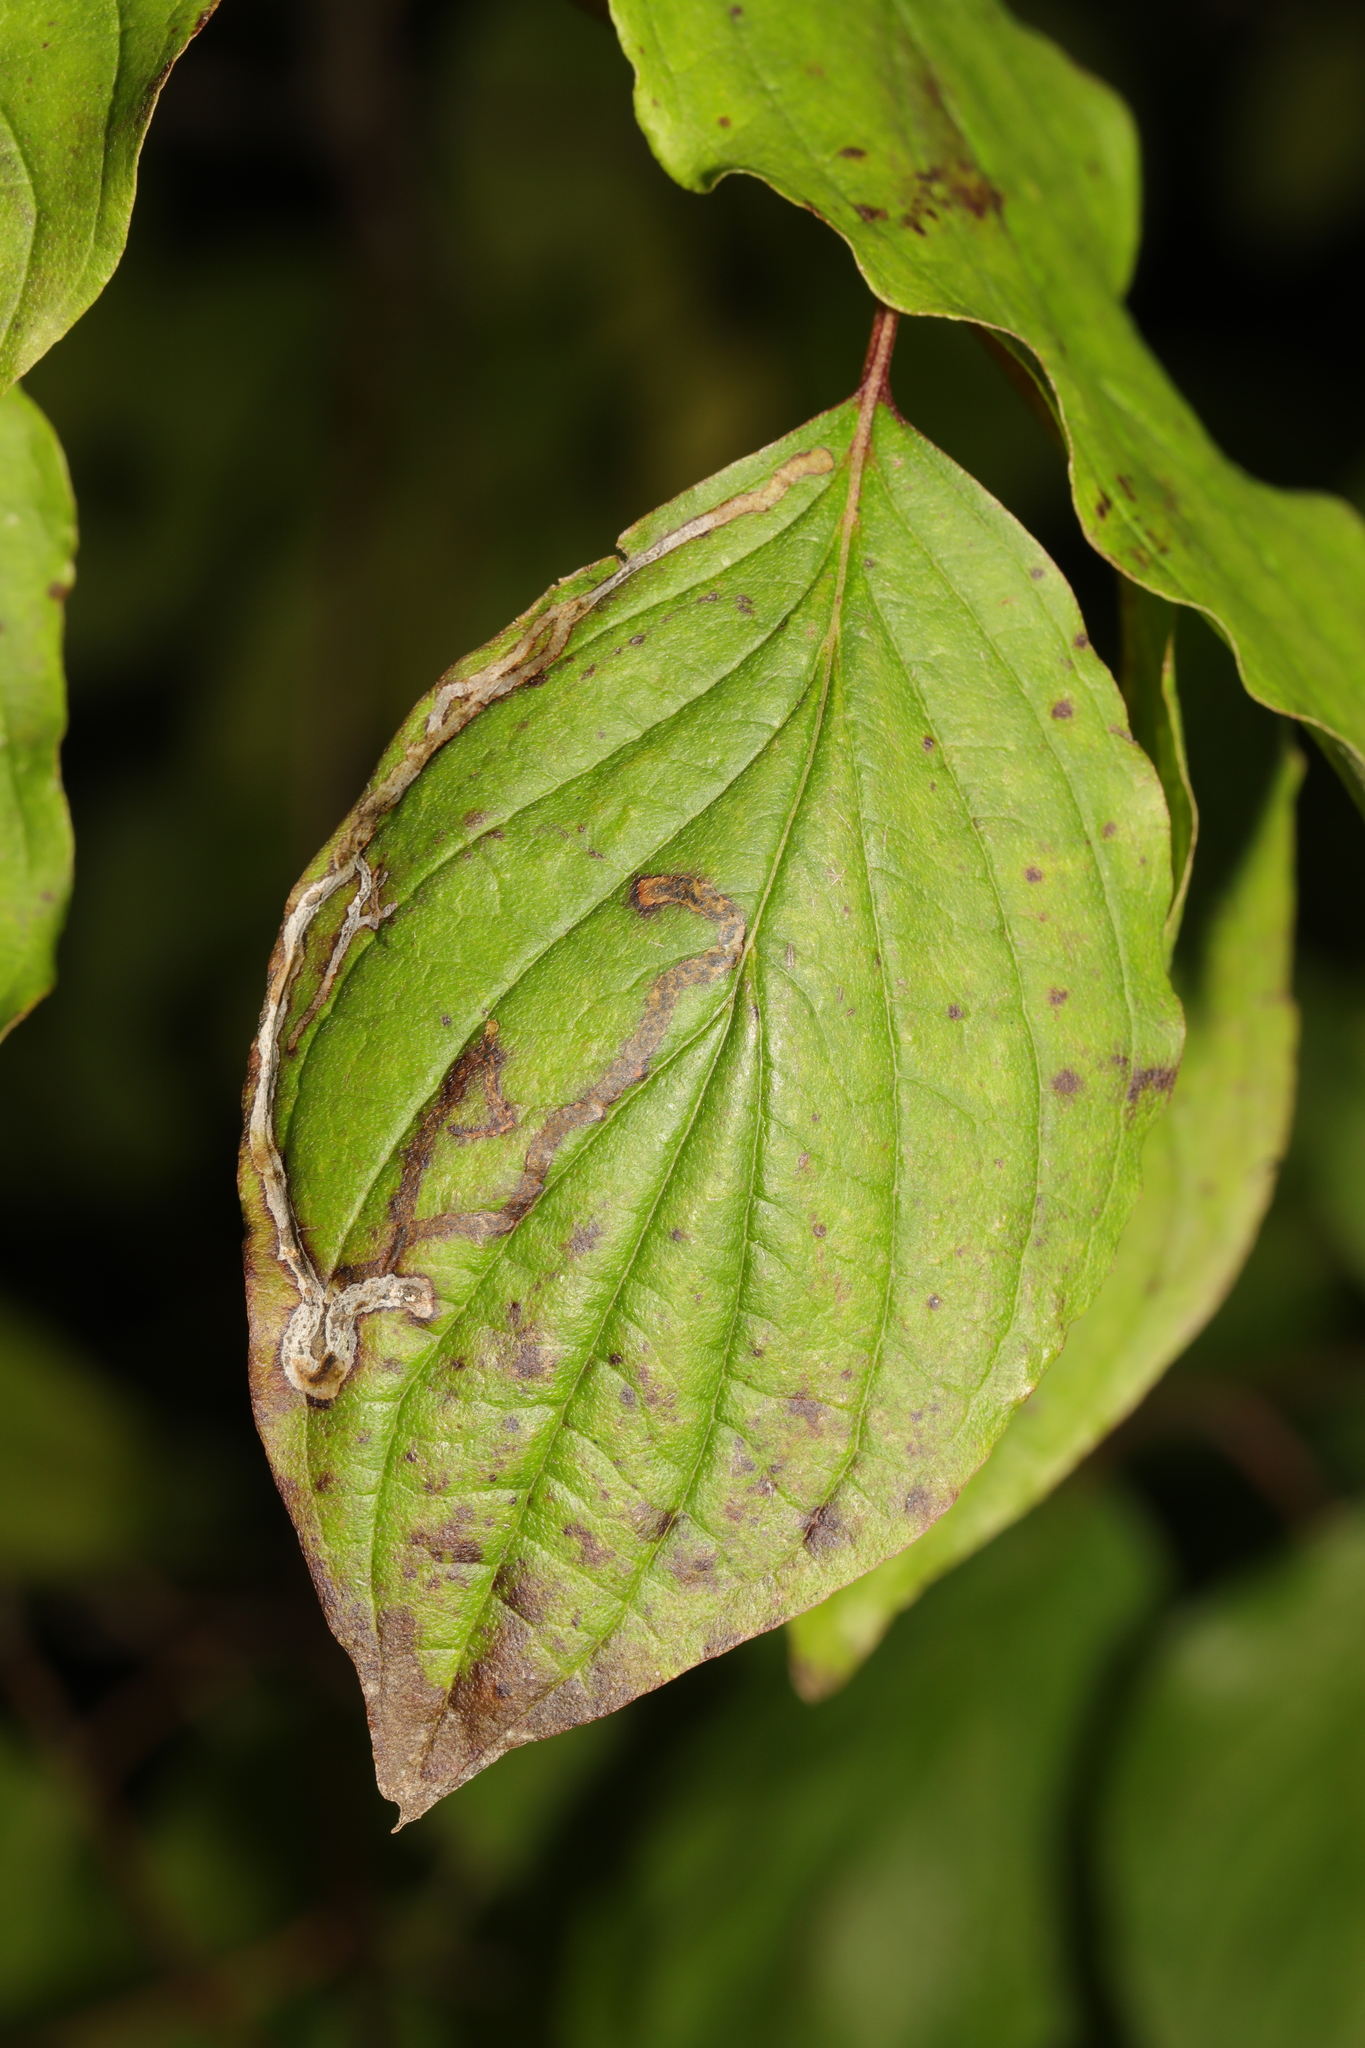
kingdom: Animalia
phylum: Arthropoda
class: Insecta
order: Diptera
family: Agromyzidae
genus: Phytomyza
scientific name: Phytomyza agromyzina
